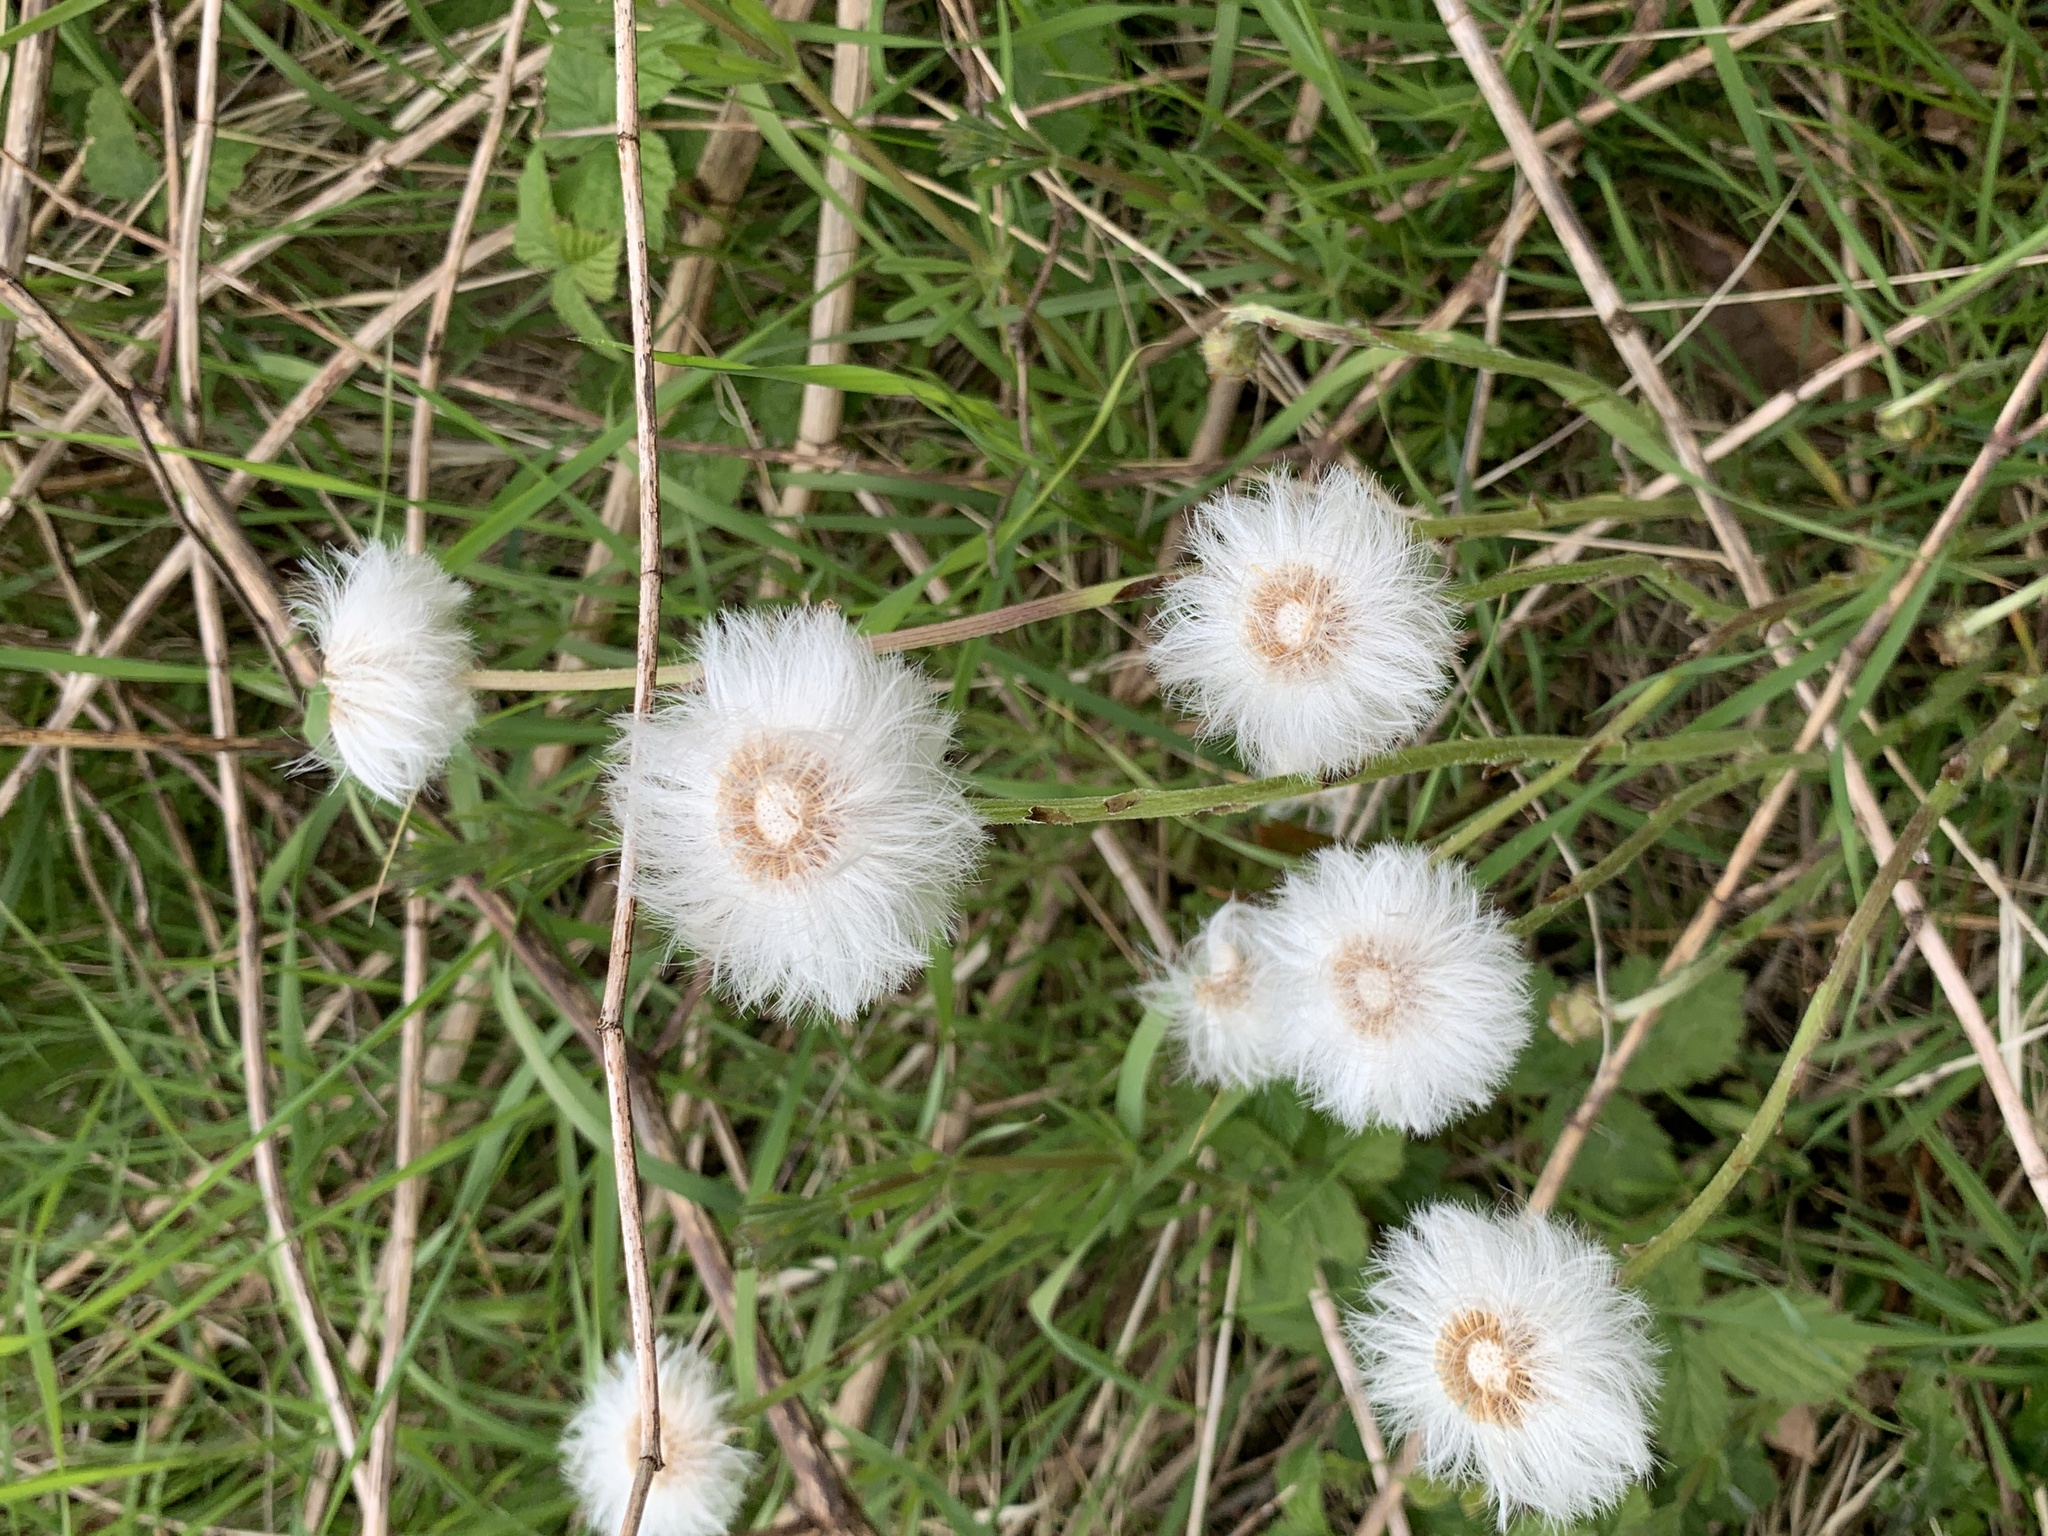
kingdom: Plantae
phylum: Tracheophyta
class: Magnoliopsida
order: Asterales
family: Asteraceae
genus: Tussilago
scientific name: Tussilago farfara
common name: Coltsfoot
